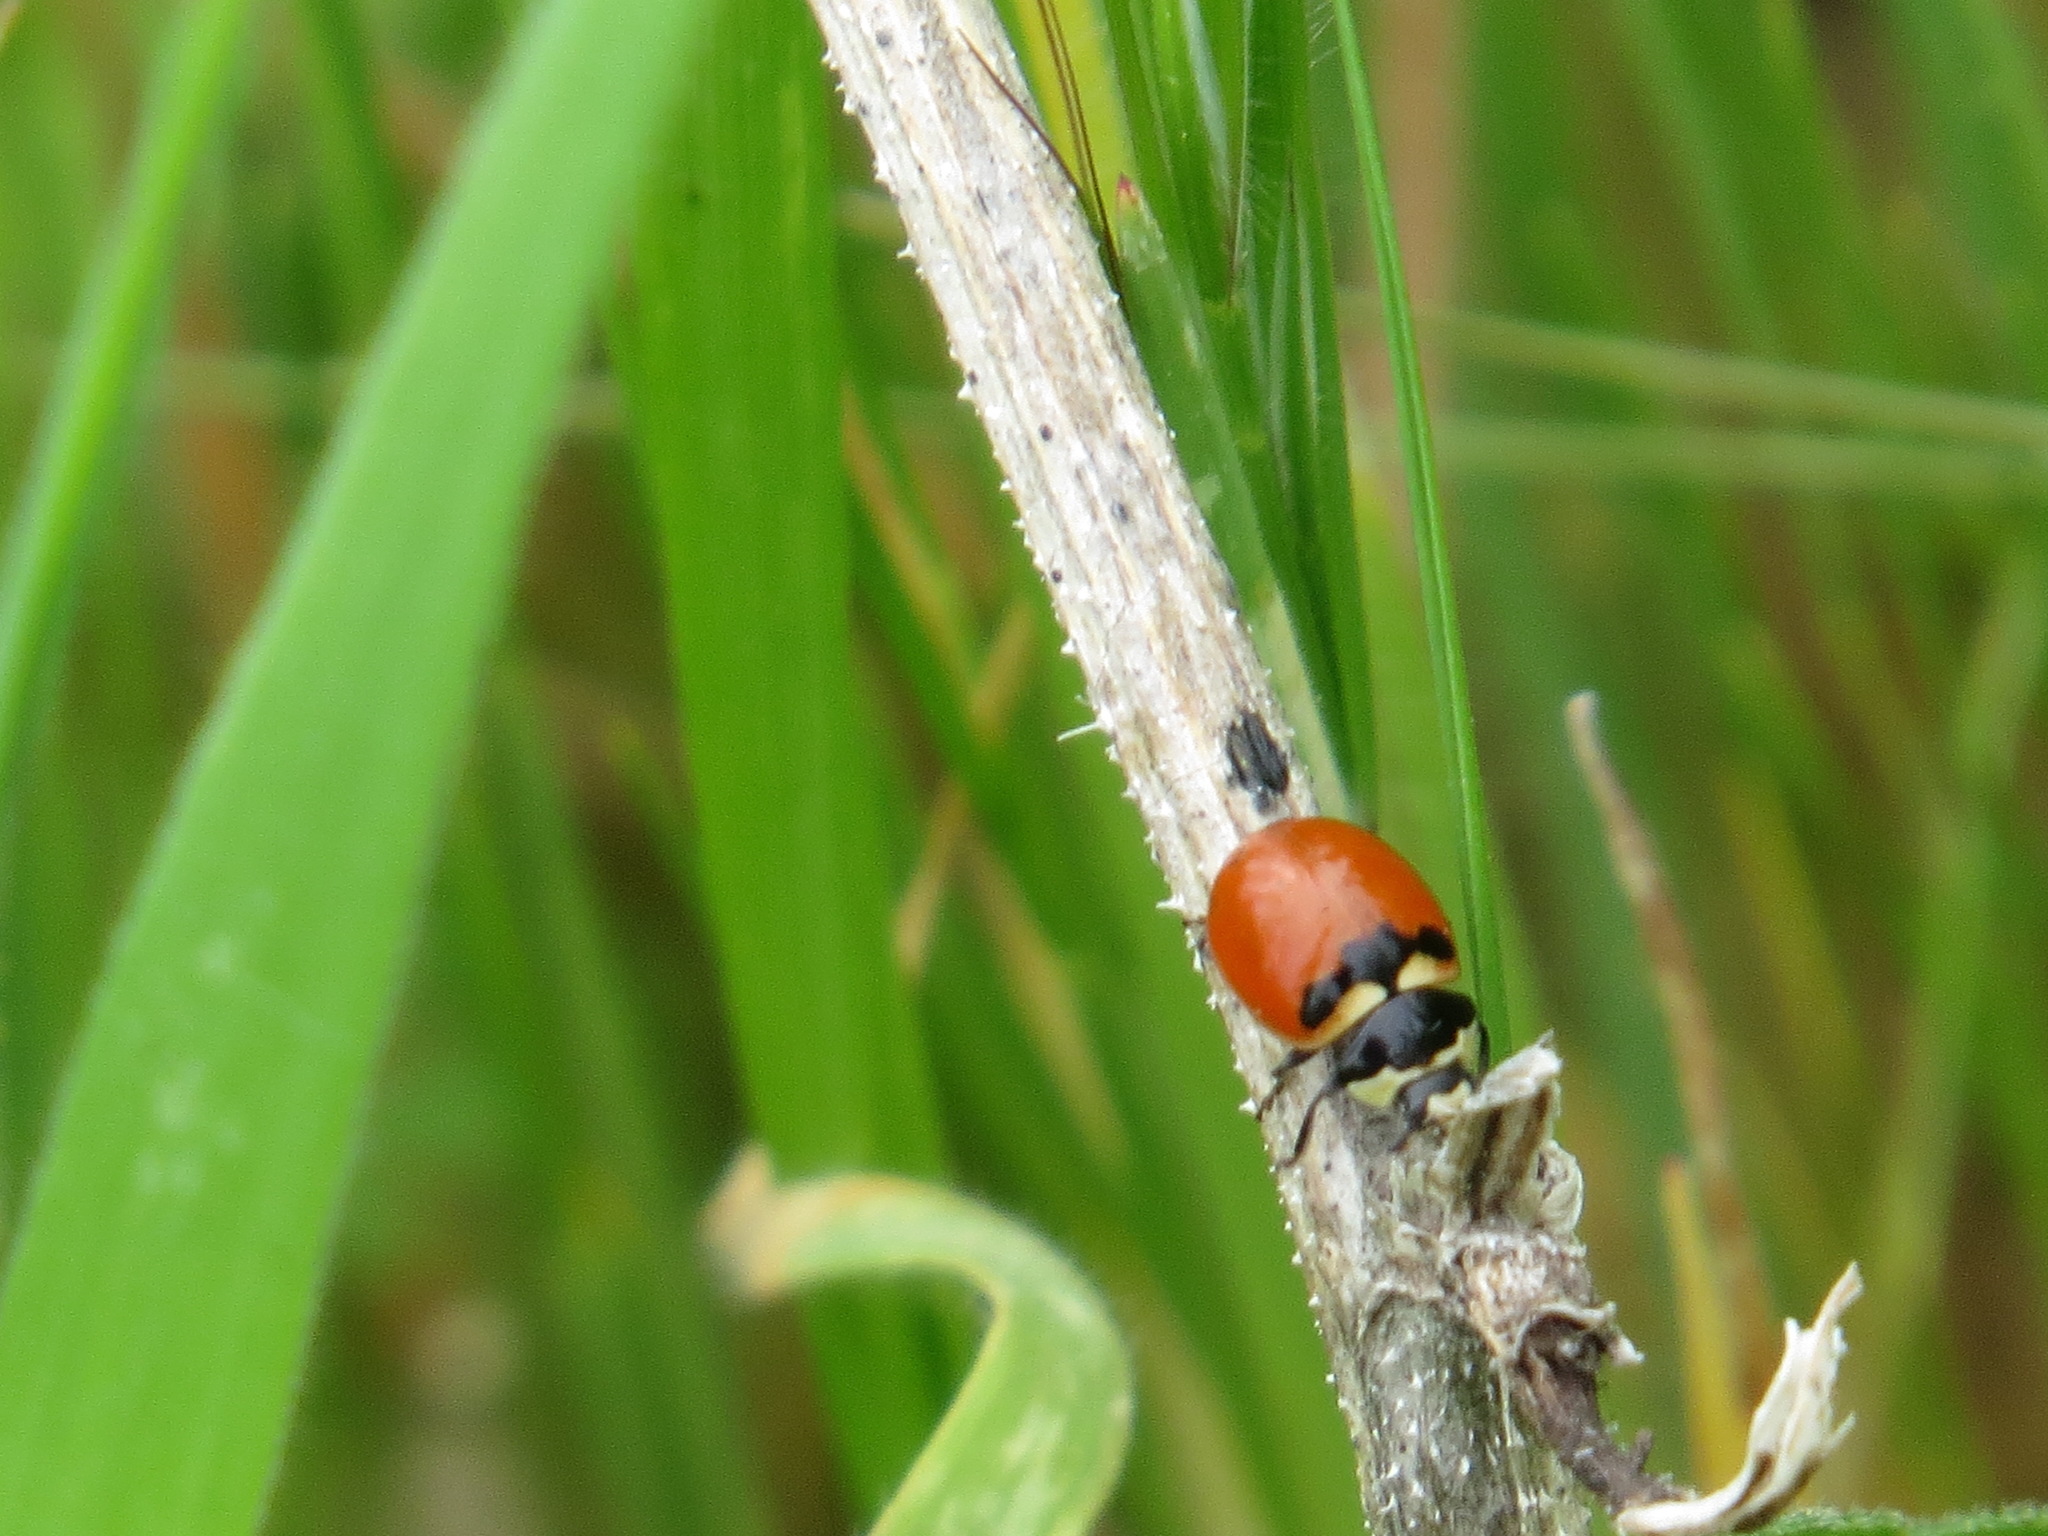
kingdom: Animalia
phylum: Arthropoda
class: Insecta
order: Coleoptera
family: Coccinellidae
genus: Coccinella
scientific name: Coccinella trifasciata
